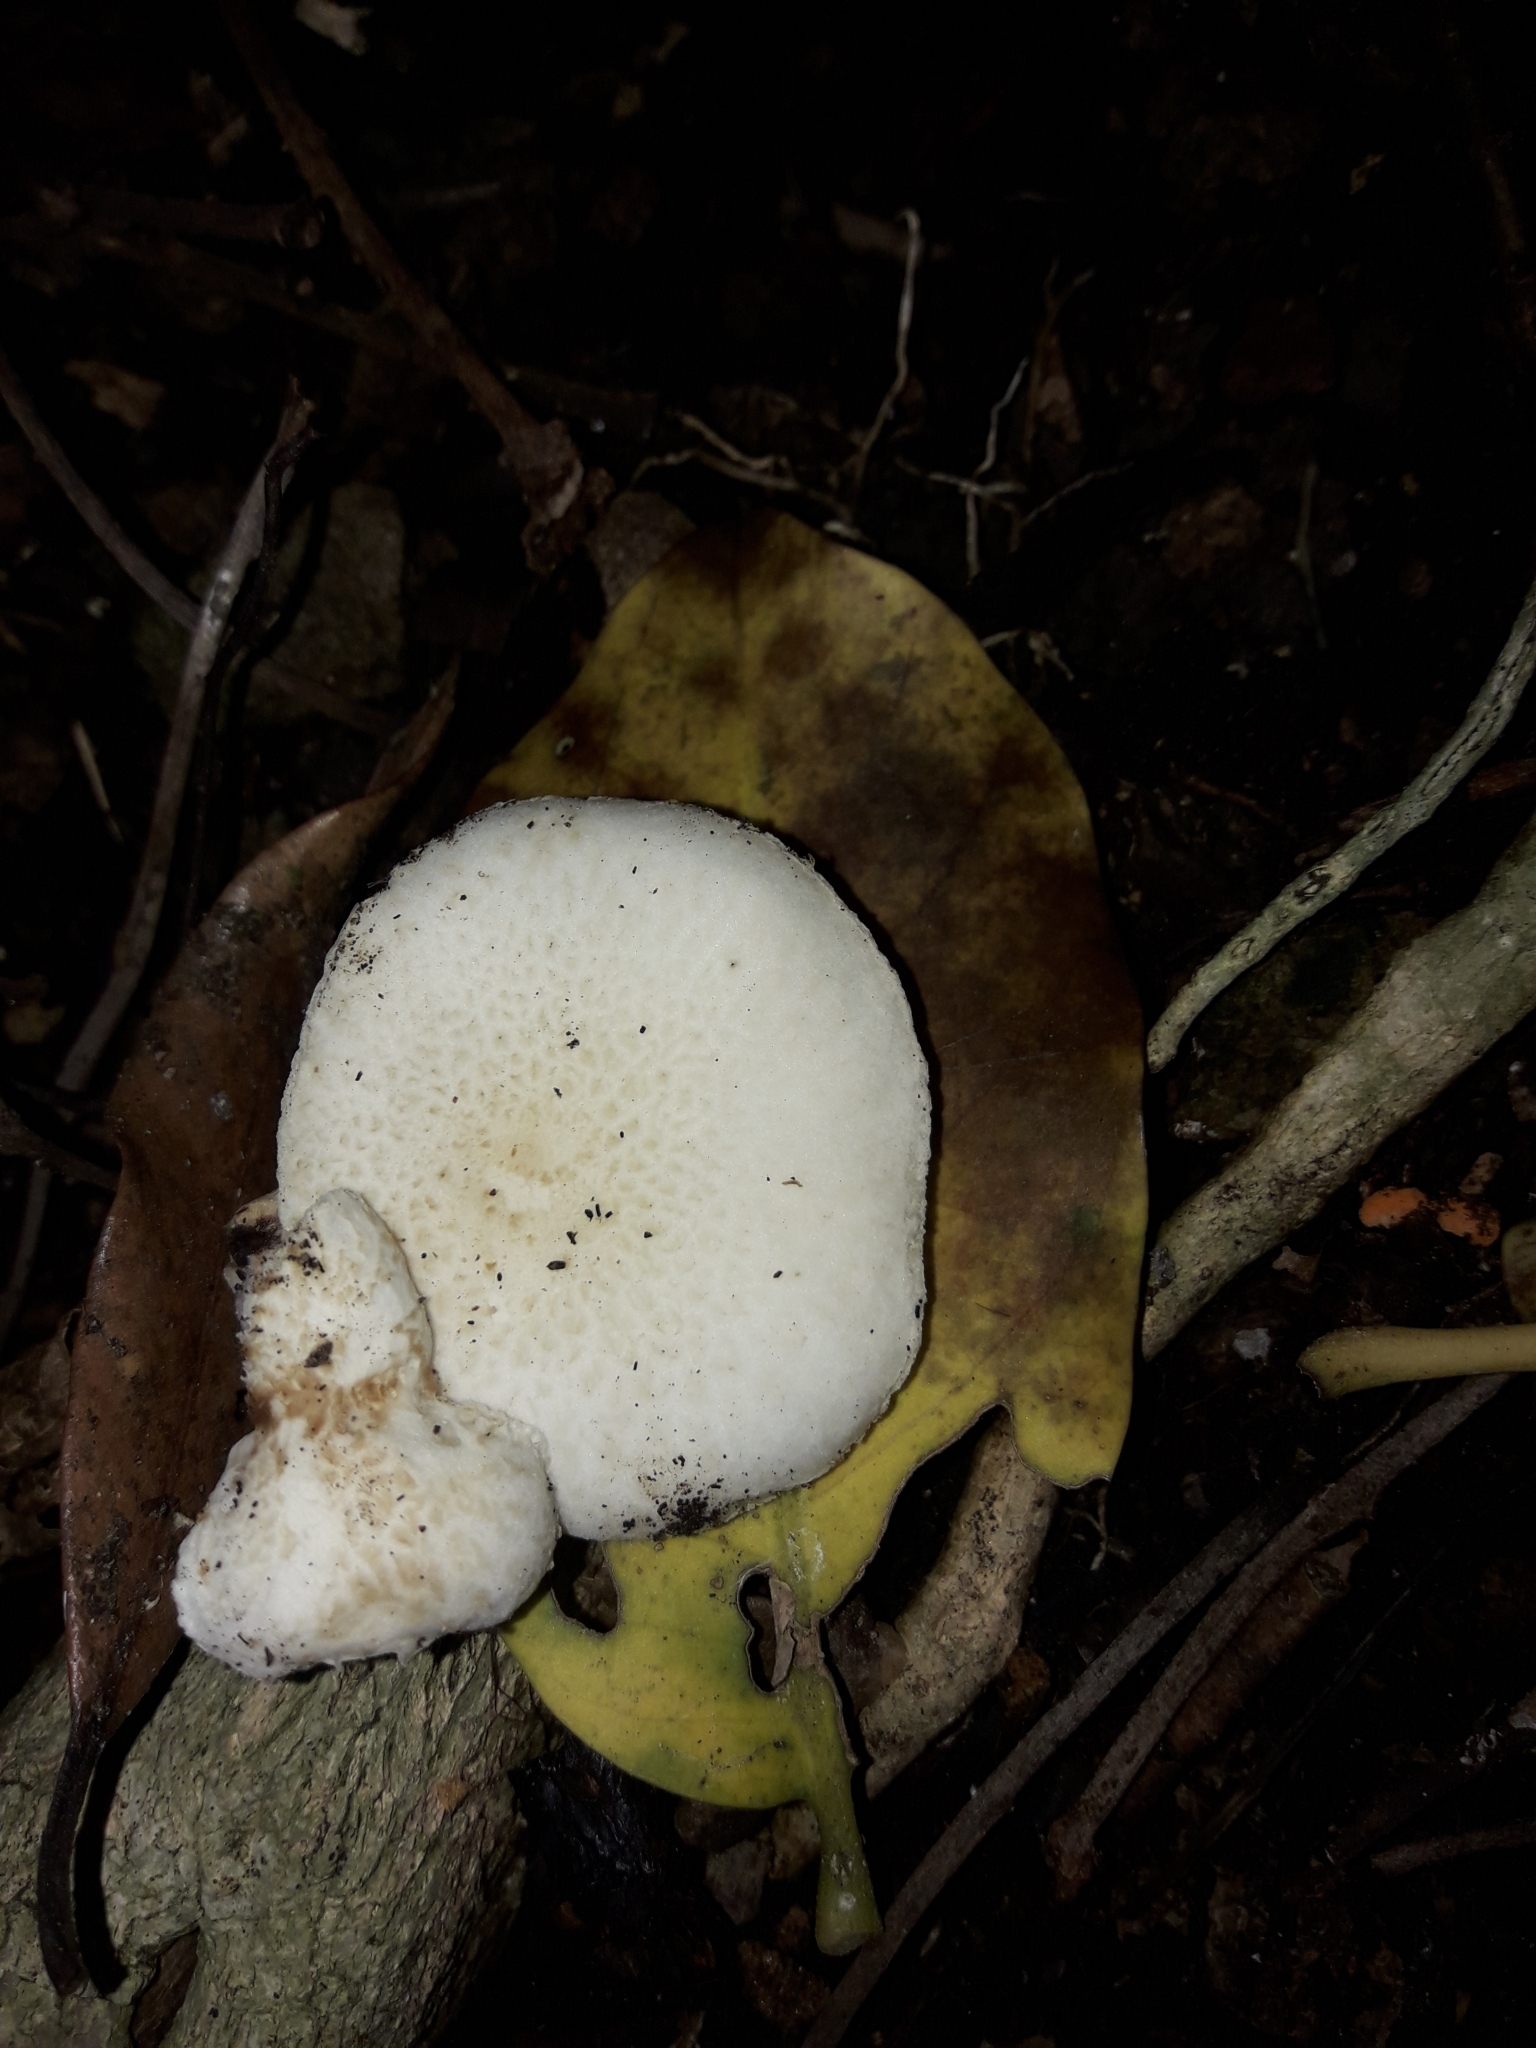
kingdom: Fungi
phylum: Basidiomycota
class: Agaricomycetes
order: Agaricales
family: Physalacriaceae
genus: Oudemansiella
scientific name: Oudemansiella australis
